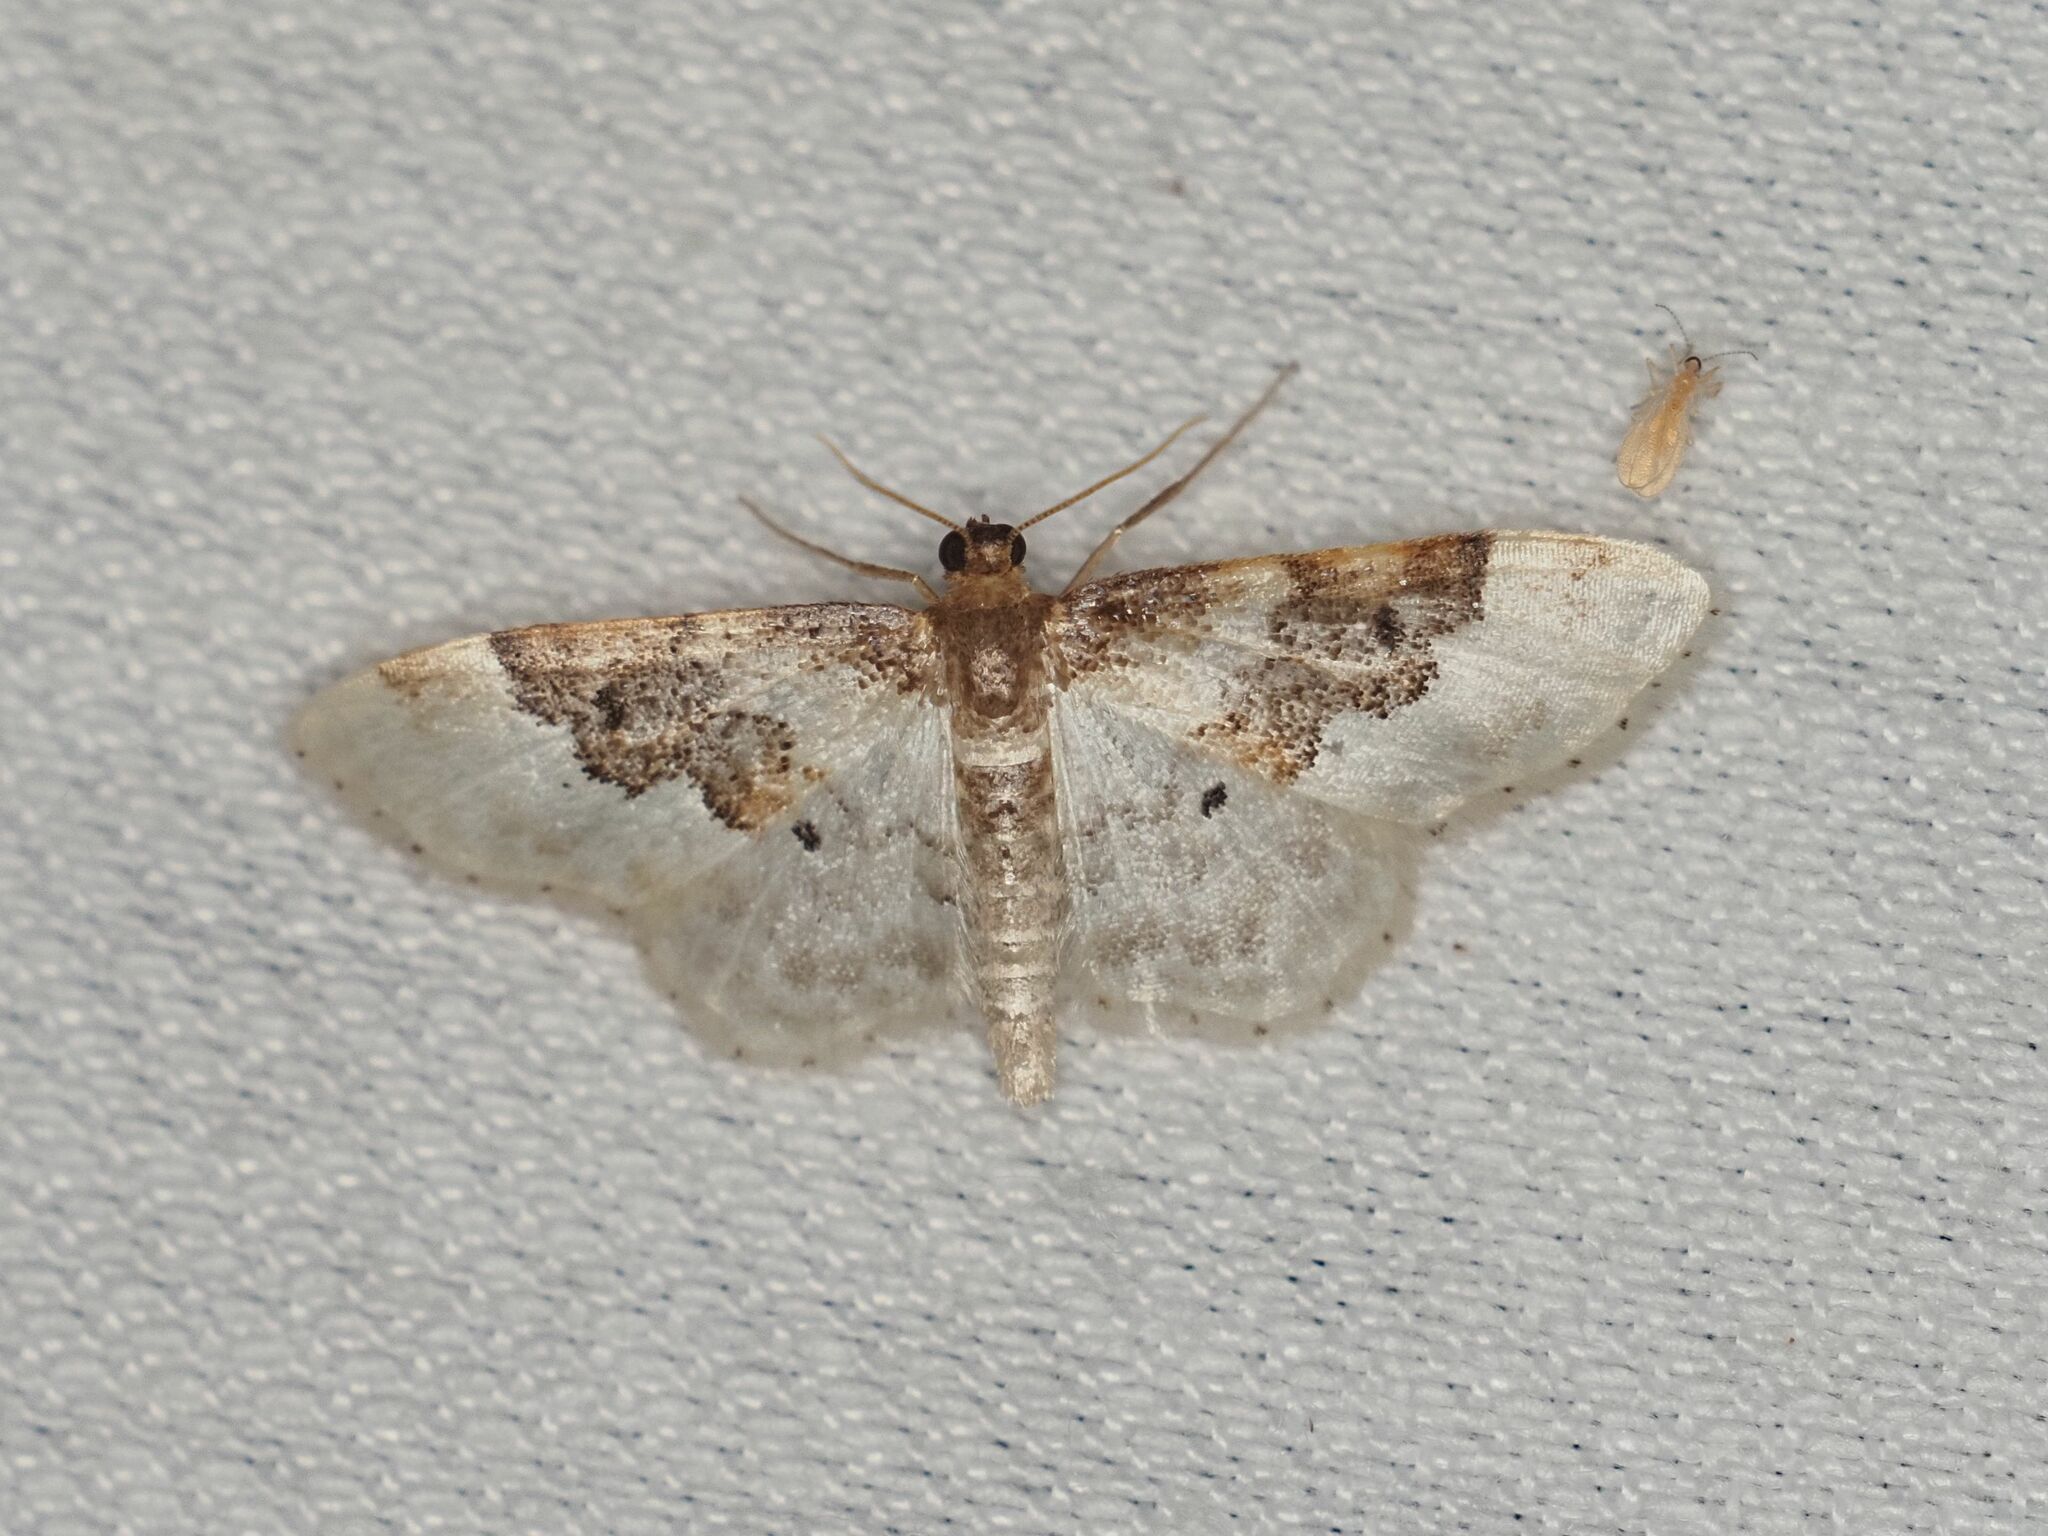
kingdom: Animalia
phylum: Arthropoda
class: Insecta
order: Lepidoptera
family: Geometridae
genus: Idaea
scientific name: Idaea rusticata
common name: Least carpet
